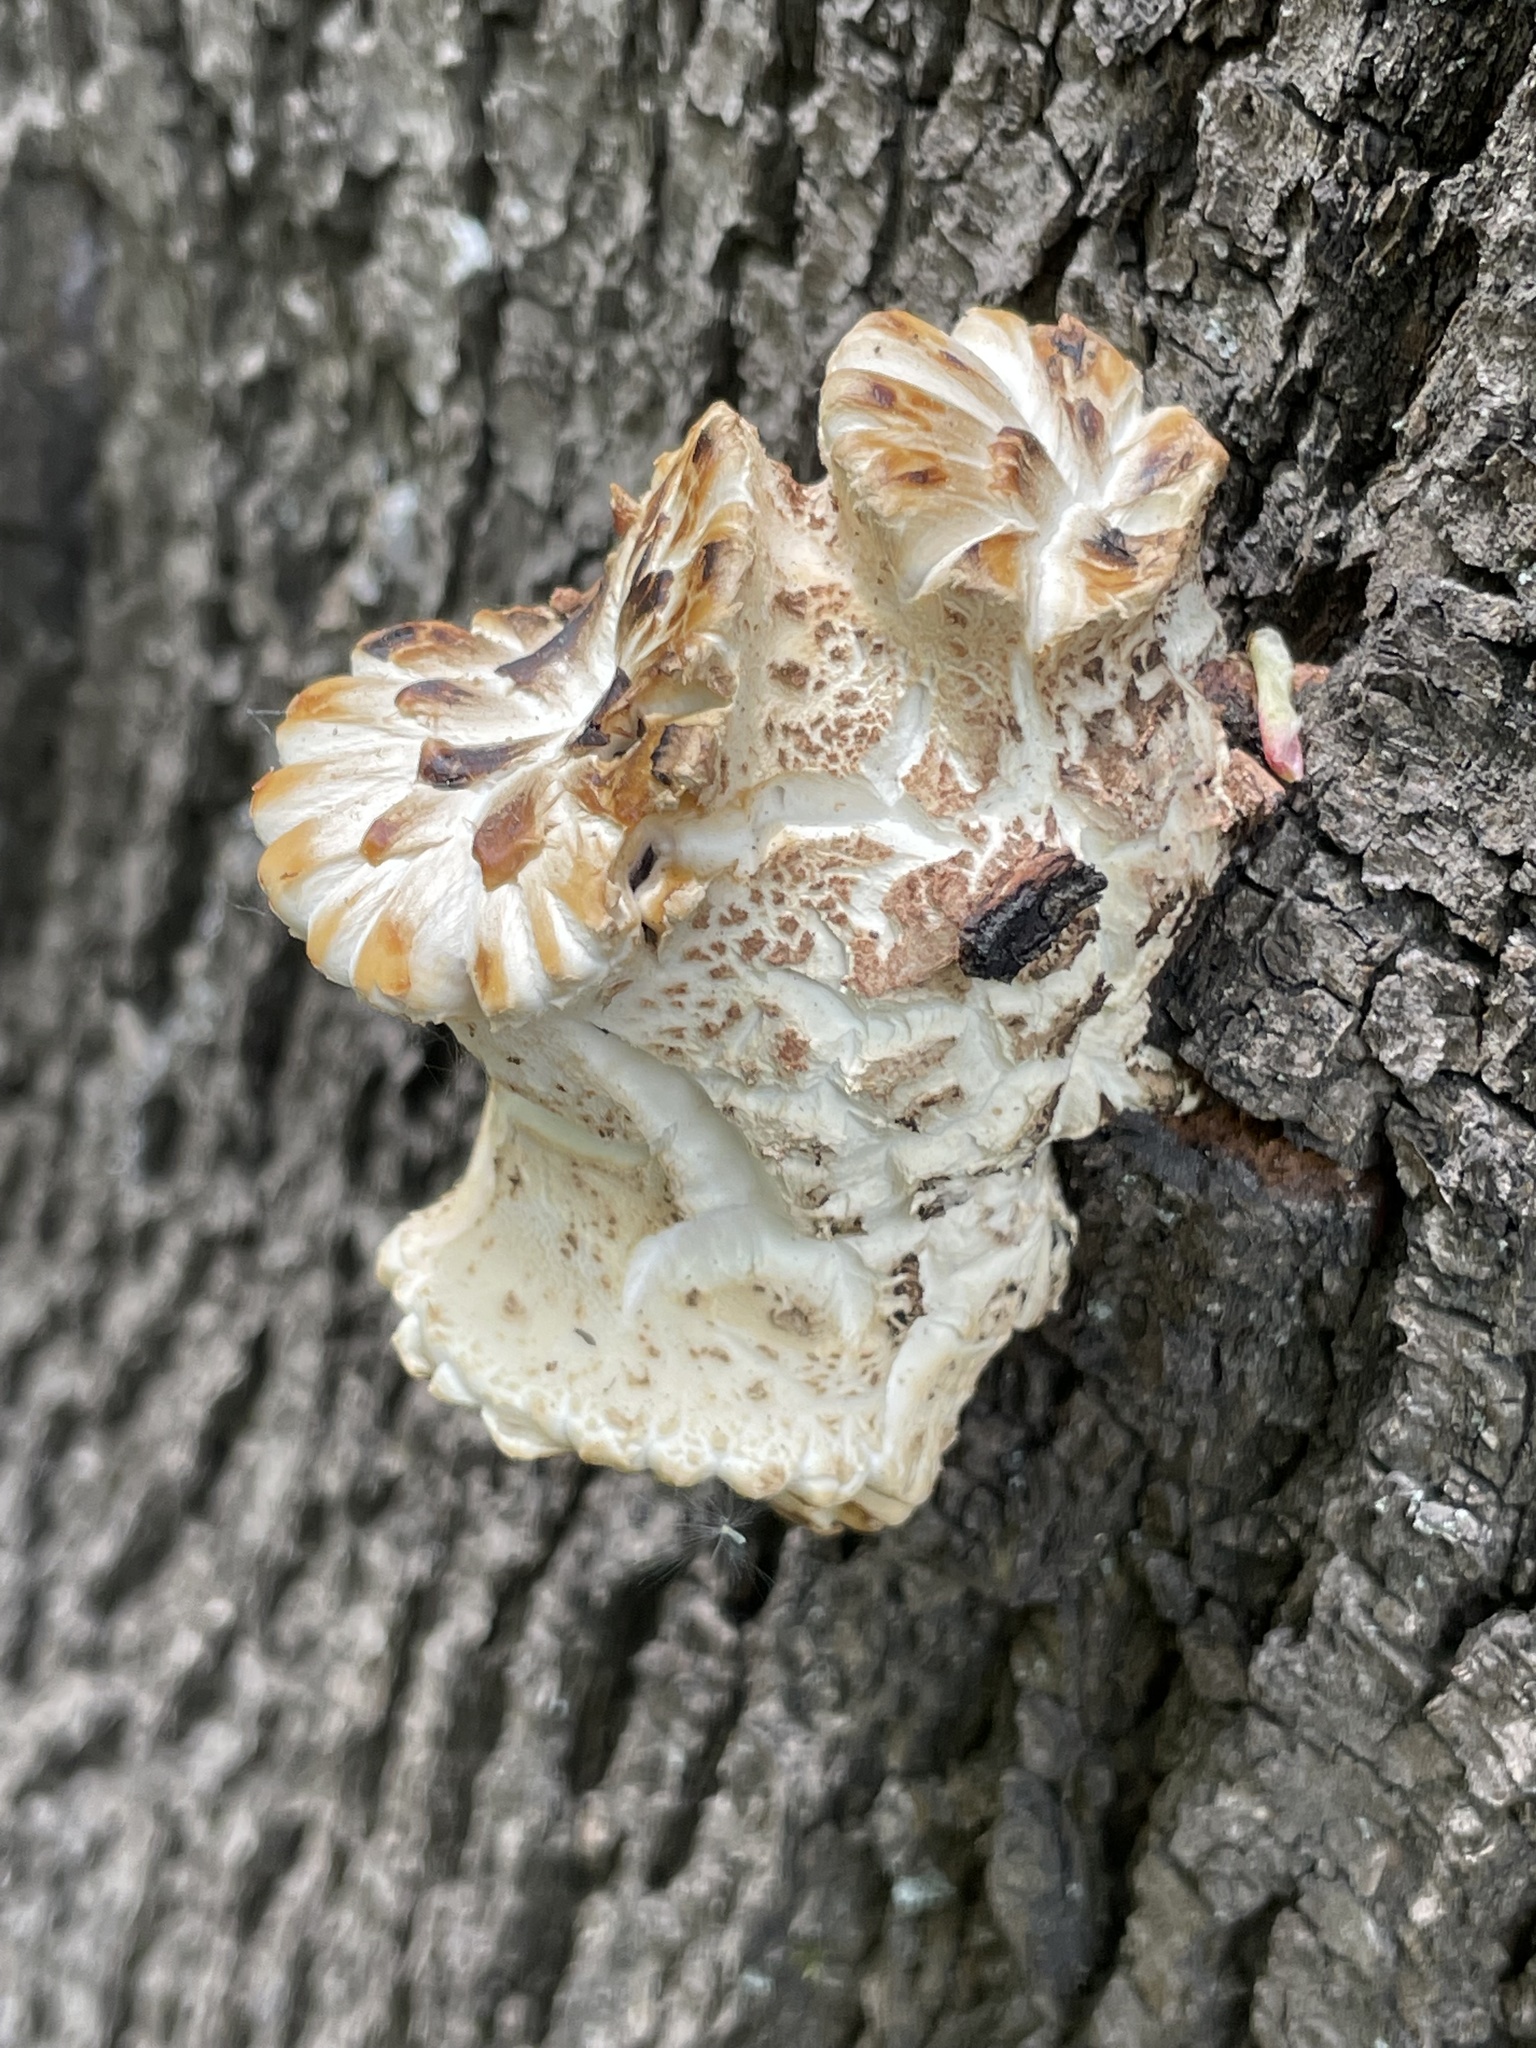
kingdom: Fungi
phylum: Basidiomycota
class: Agaricomycetes
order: Polyporales
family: Polyporaceae
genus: Cerioporus
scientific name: Cerioporus squamosus
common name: Dryad's saddle
